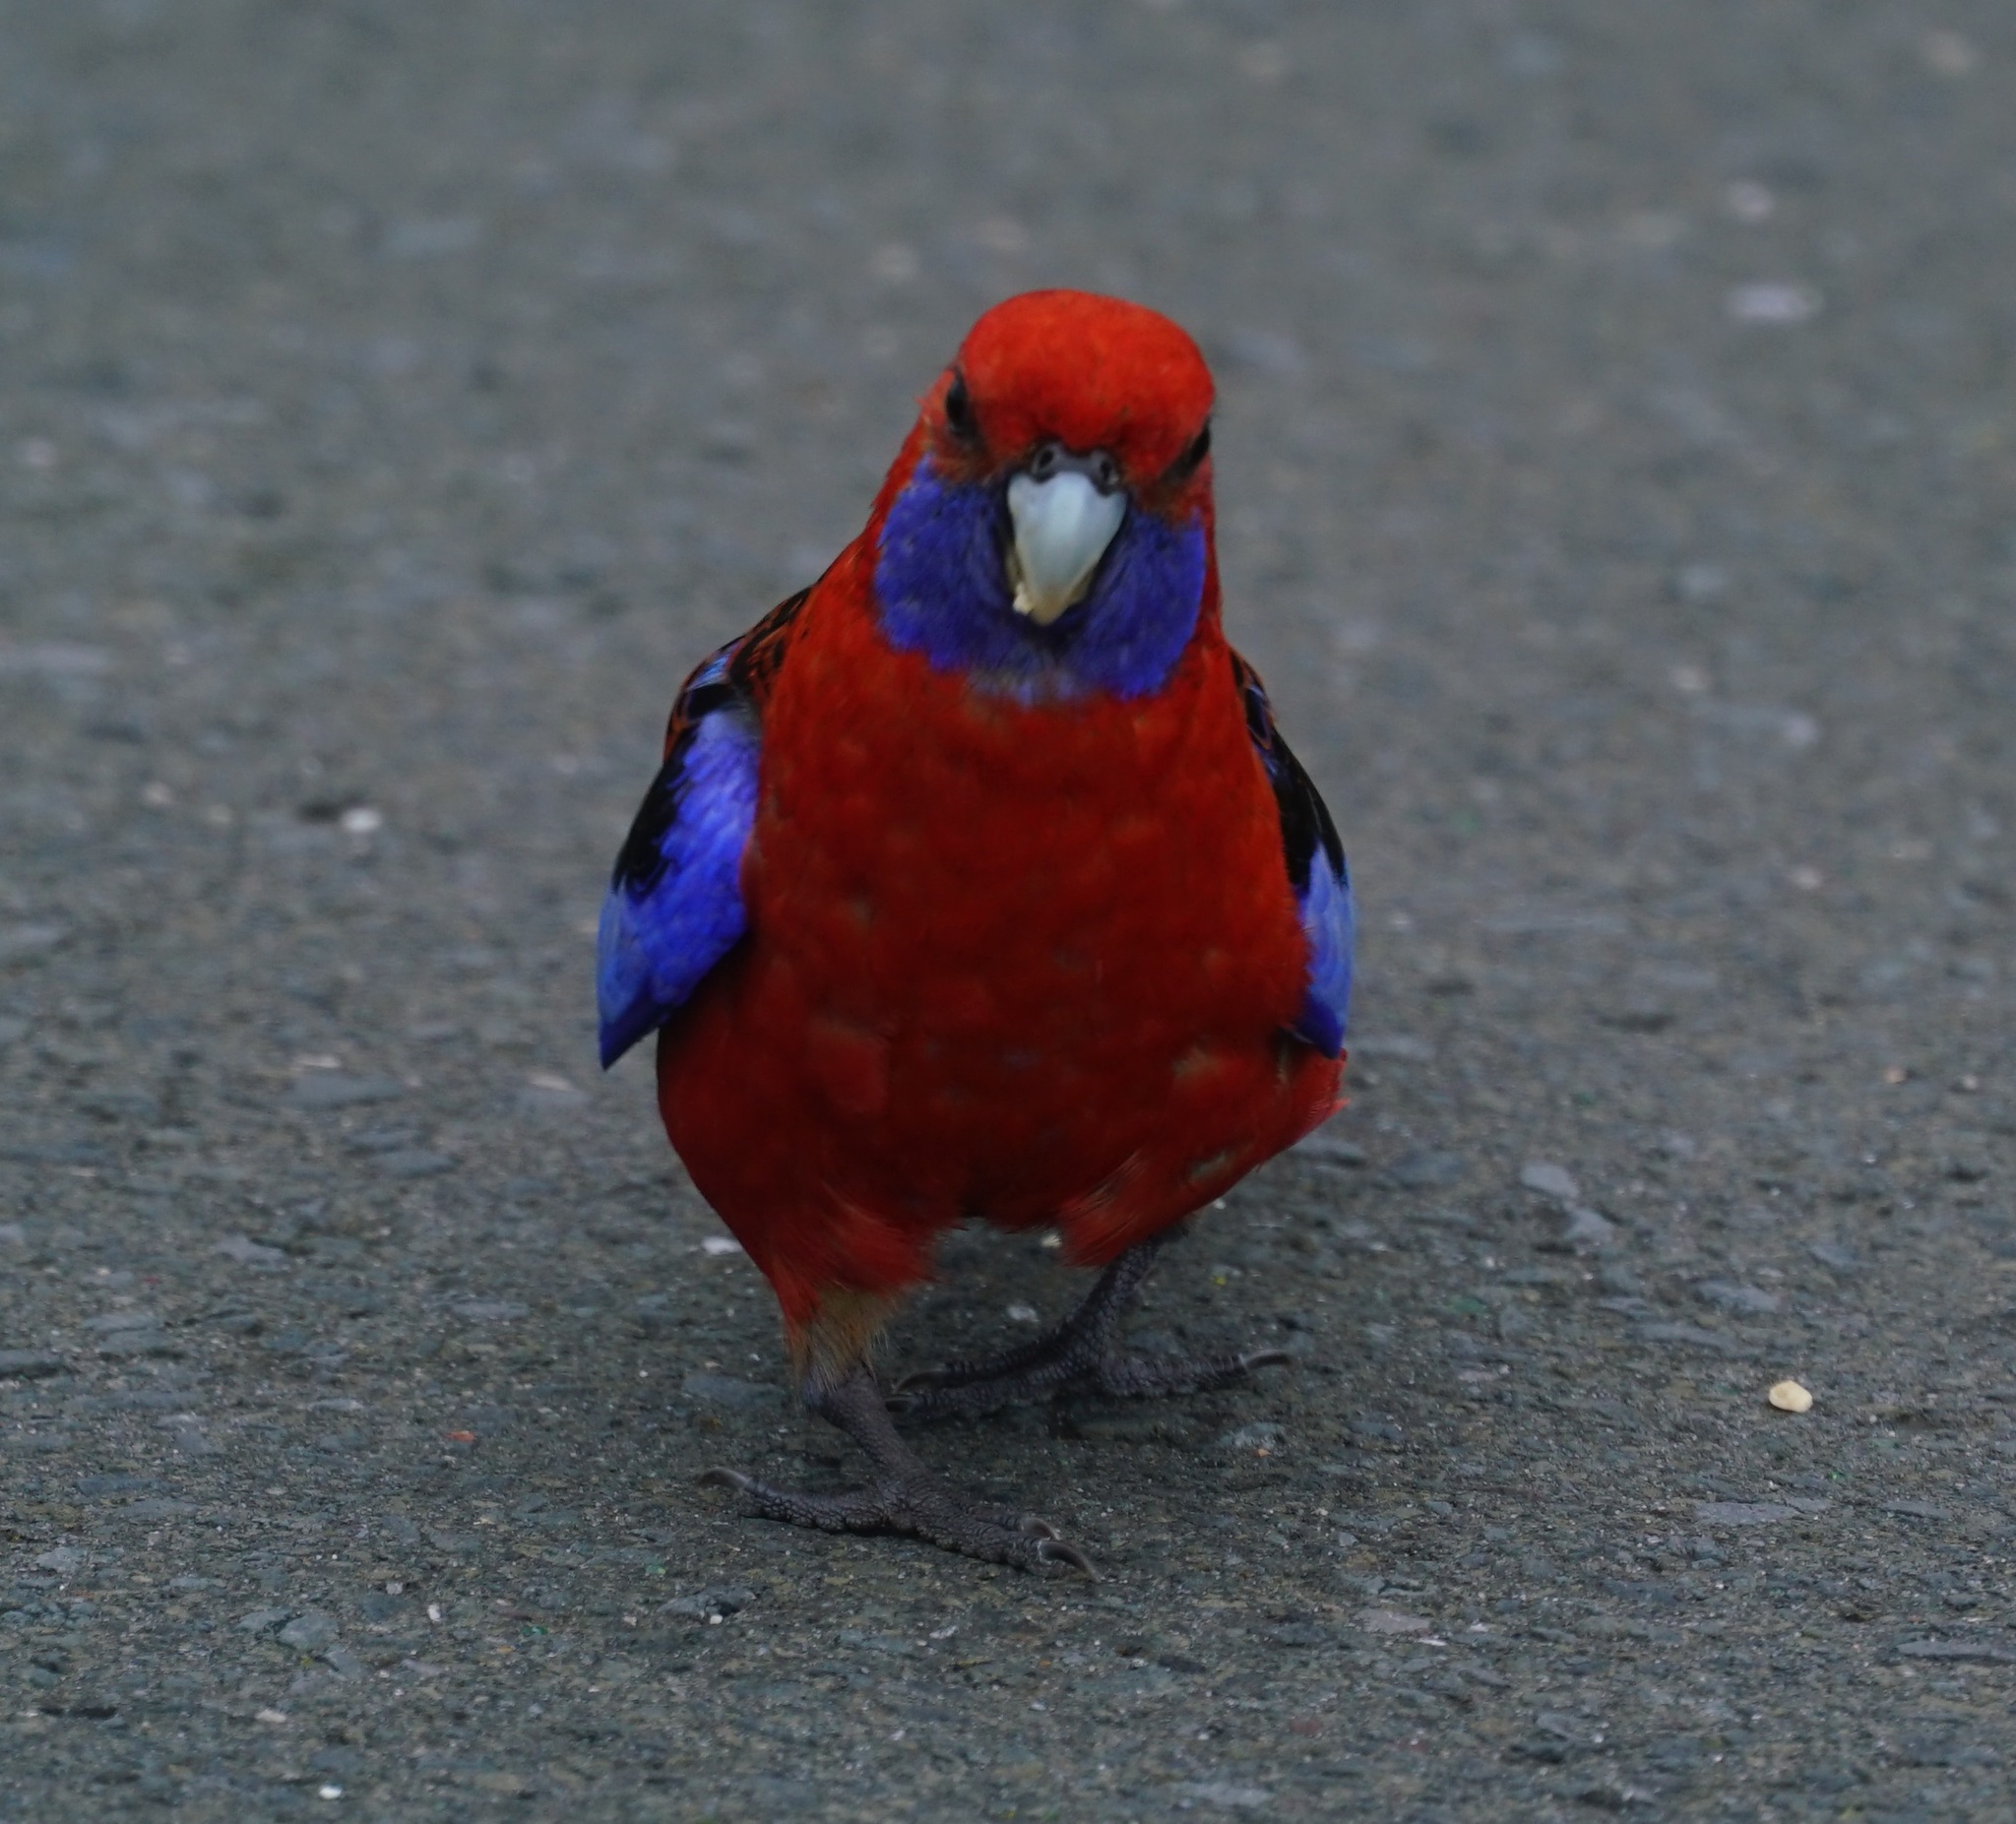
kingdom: Animalia
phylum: Chordata
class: Aves
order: Psittaciformes
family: Psittacidae
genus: Platycercus
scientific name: Platycercus elegans
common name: Crimson rosella
